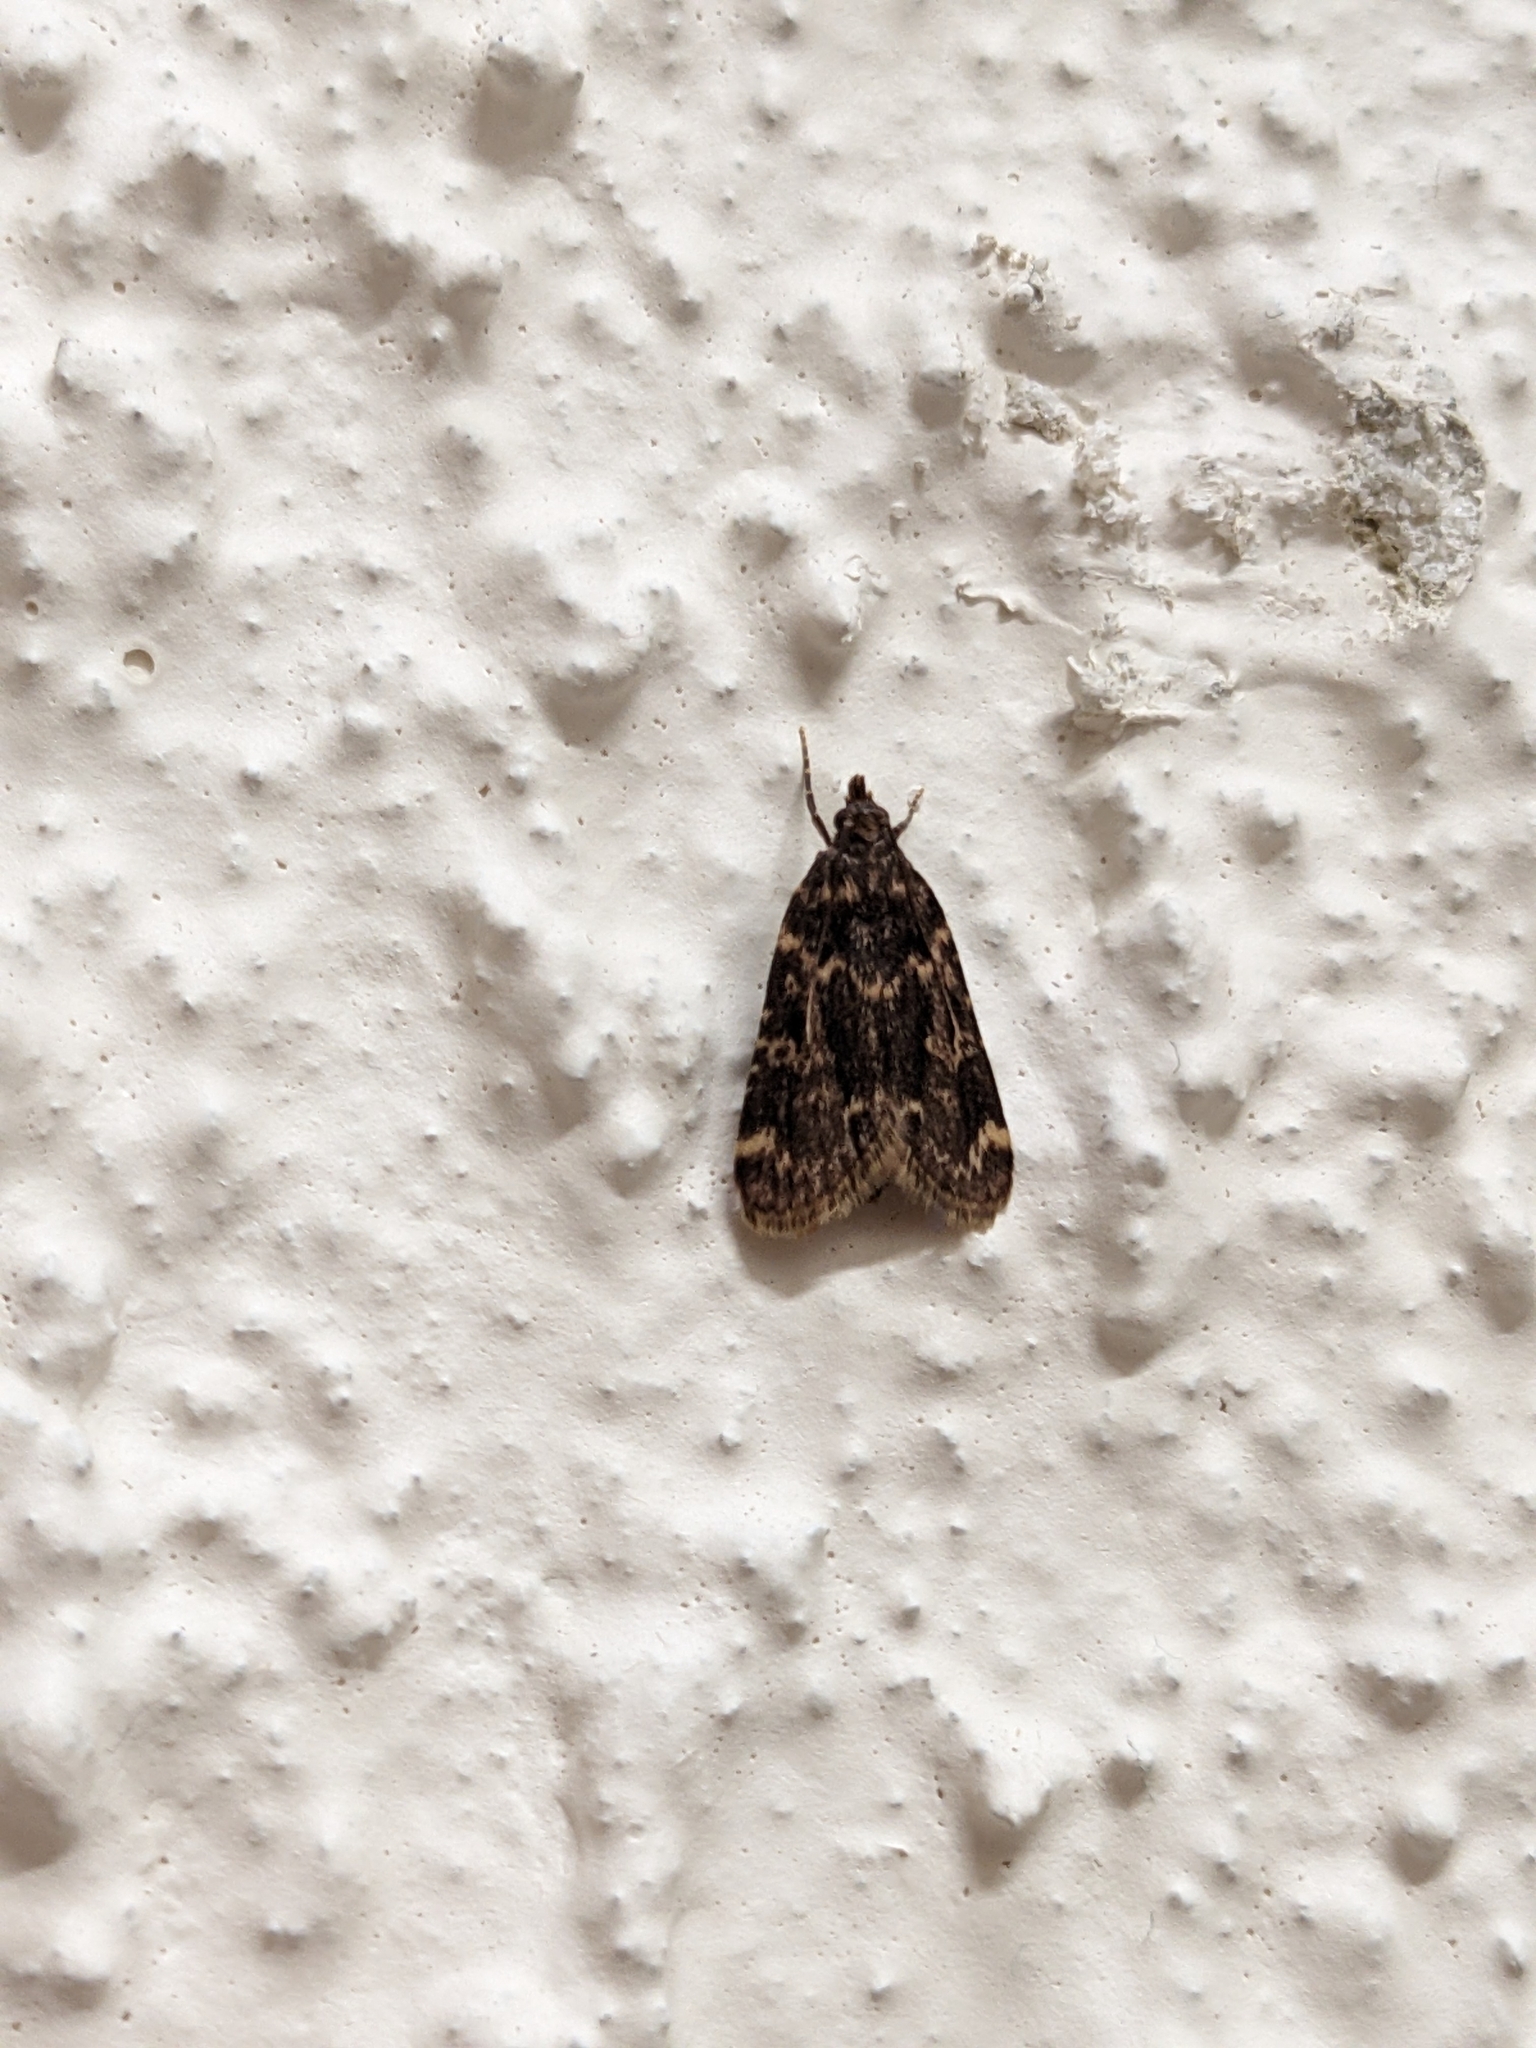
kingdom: Animalia
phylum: Arthropoda
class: Insecta
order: Lepidoptera
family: Pyralidae
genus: Aglossa
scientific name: Aglossa caprealis
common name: Small tabby
